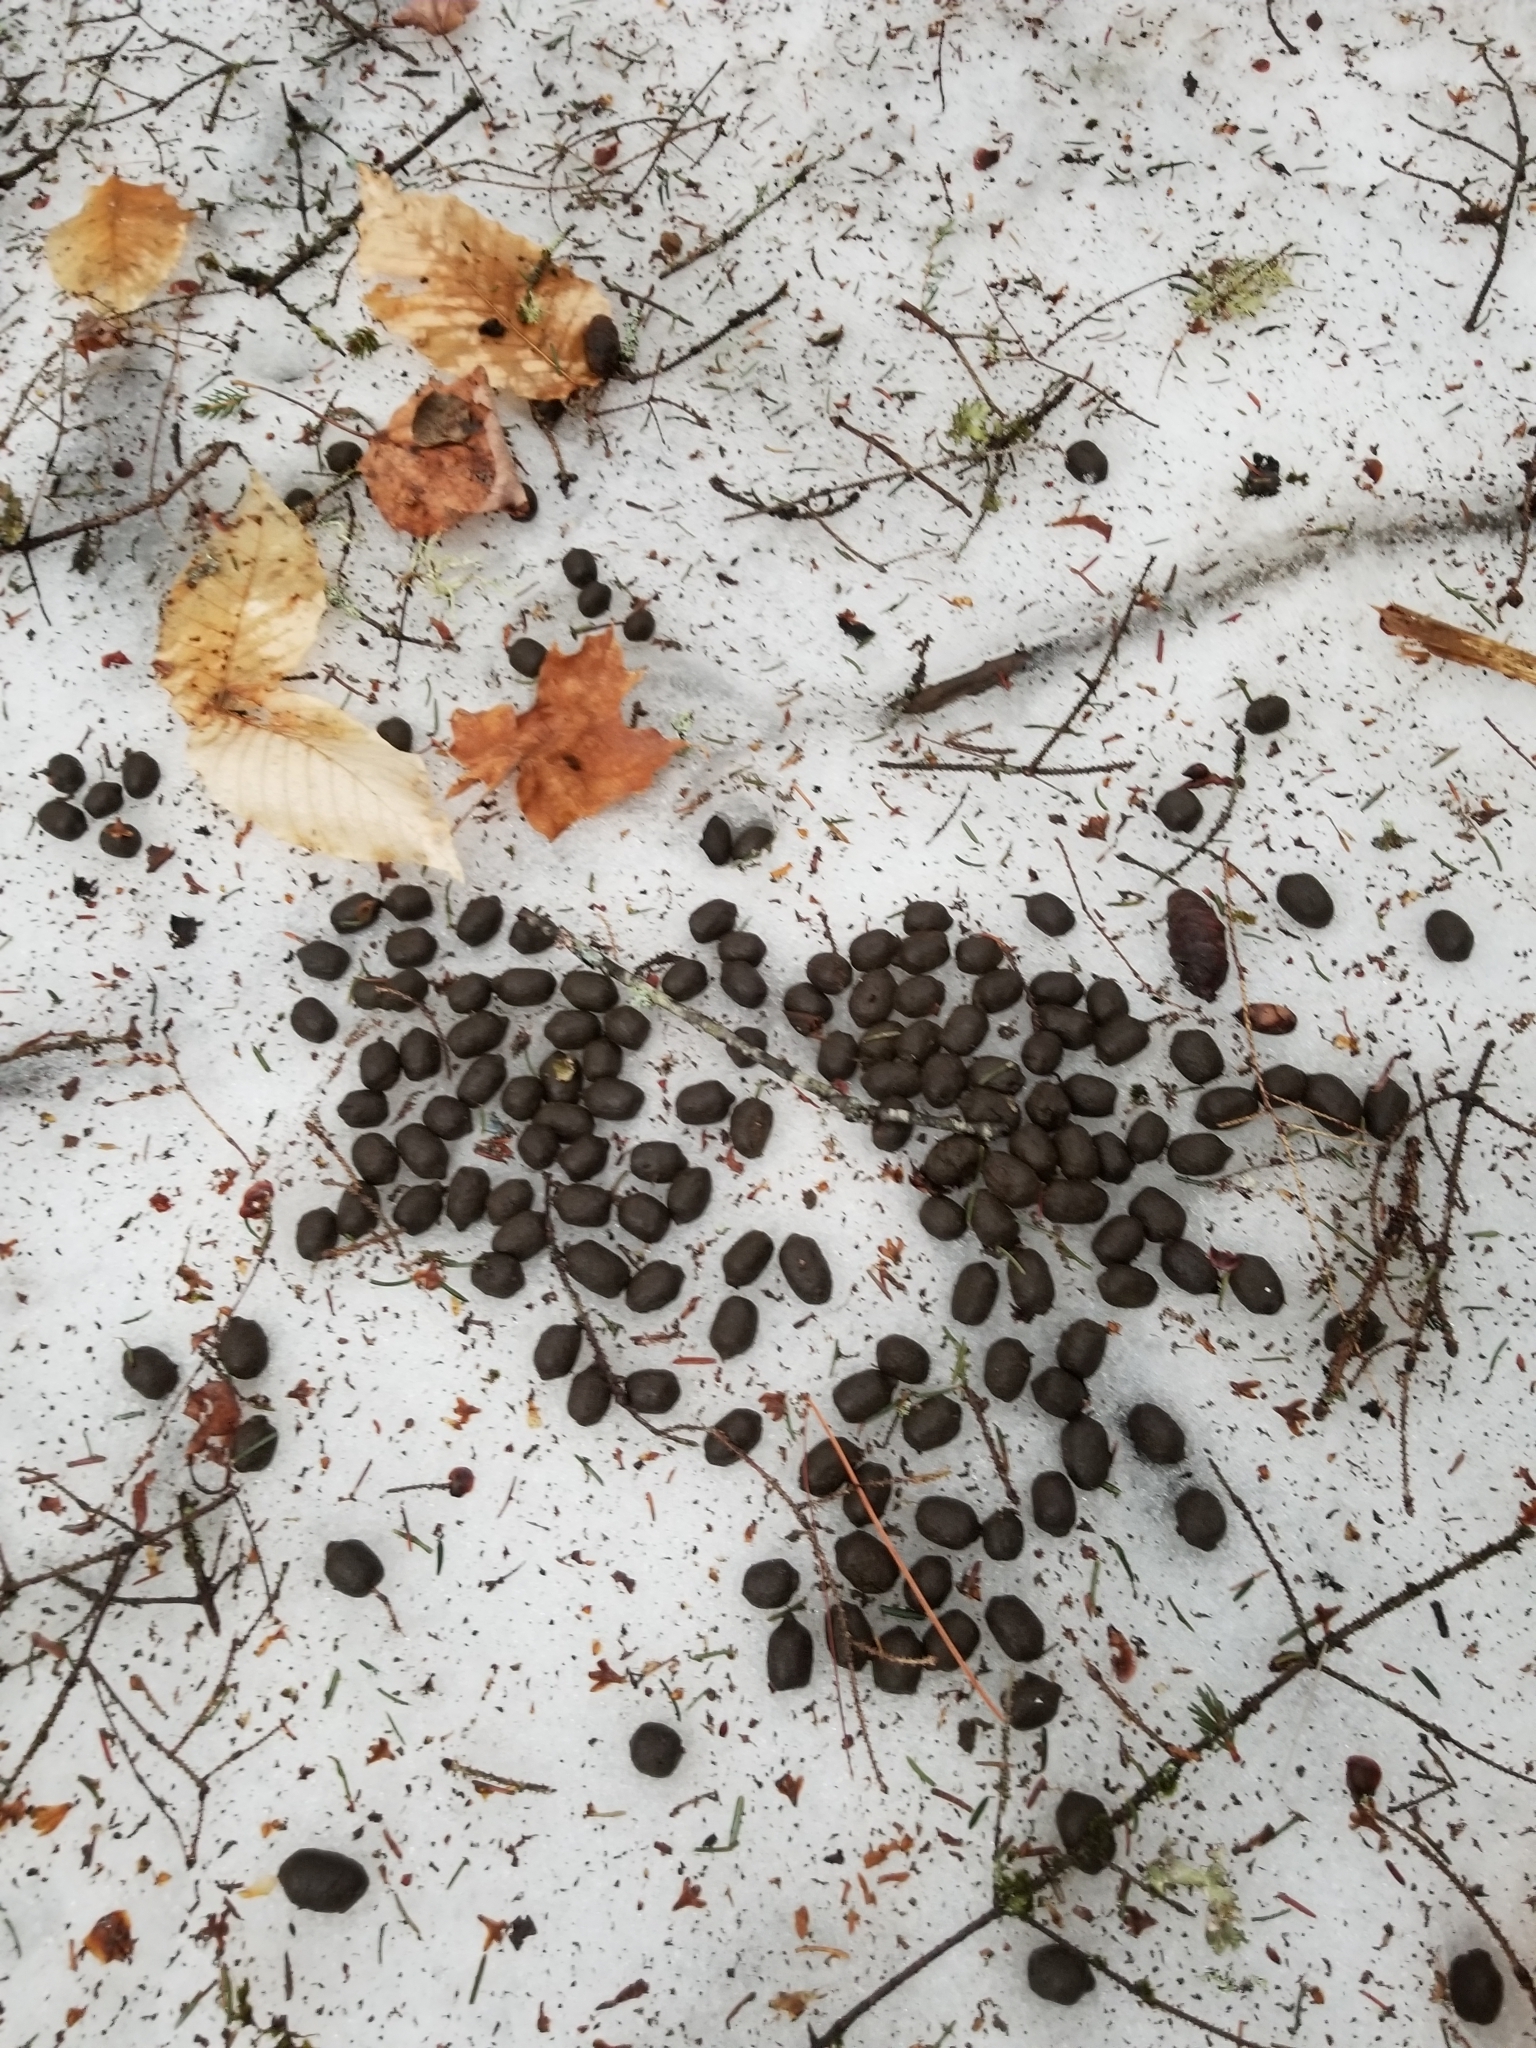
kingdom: Animalia
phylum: Chordata
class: Mammalia
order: Artiodactyla
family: Cervidae
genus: Odocoileus
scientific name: Odocoileus virginianus
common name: White-tailed deer
